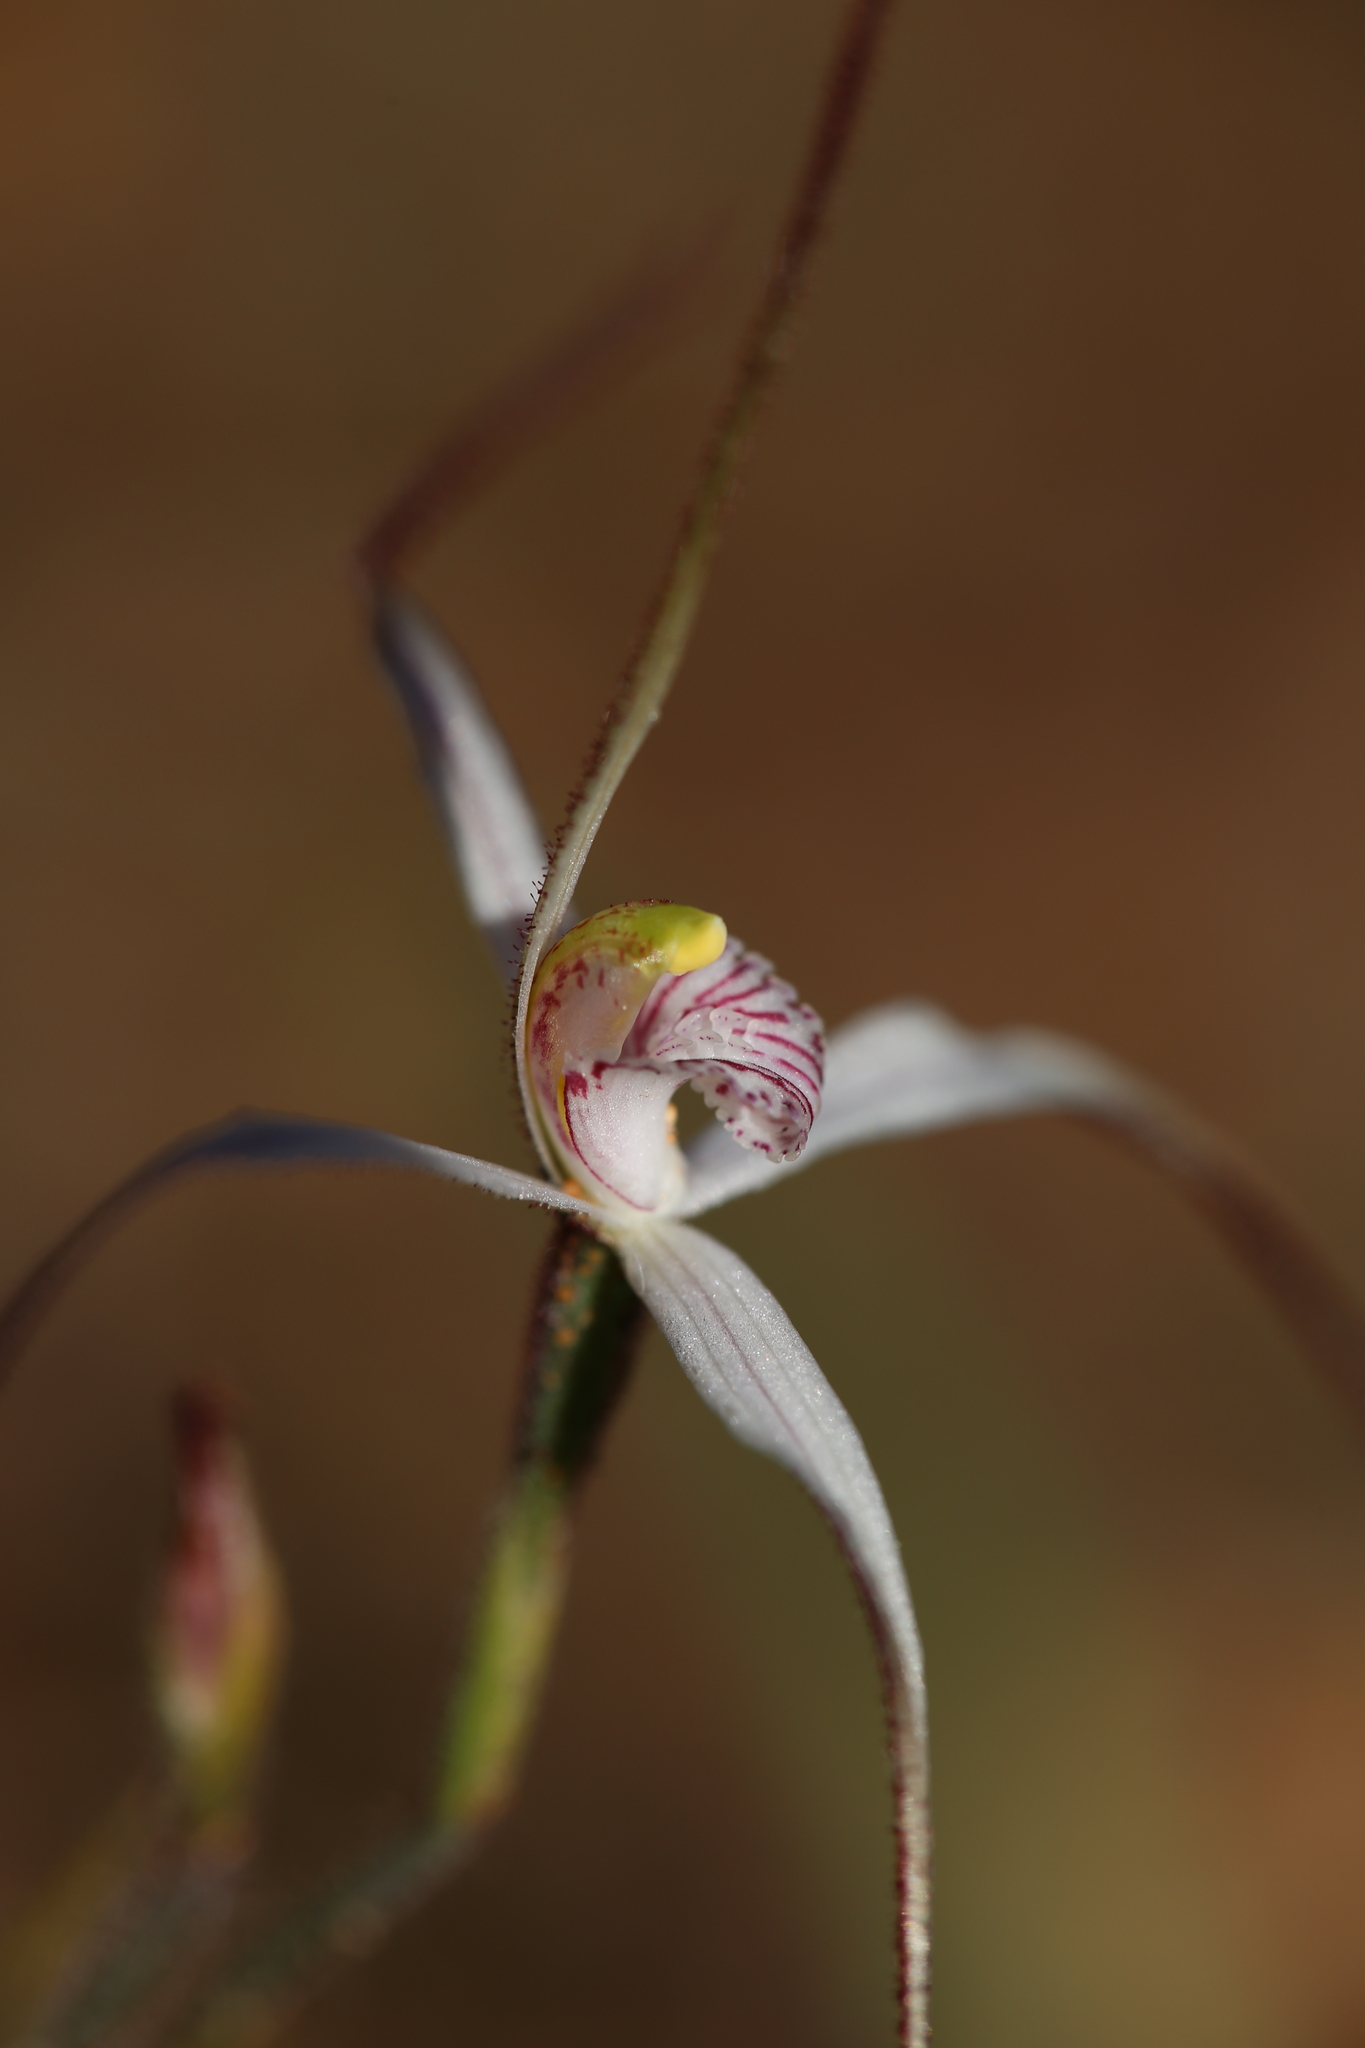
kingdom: Plantae
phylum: Tracheophyta
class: Liliopsida
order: Asparagales
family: Orchidaceae
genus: Caladenia
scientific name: Caladenia hiemalis
